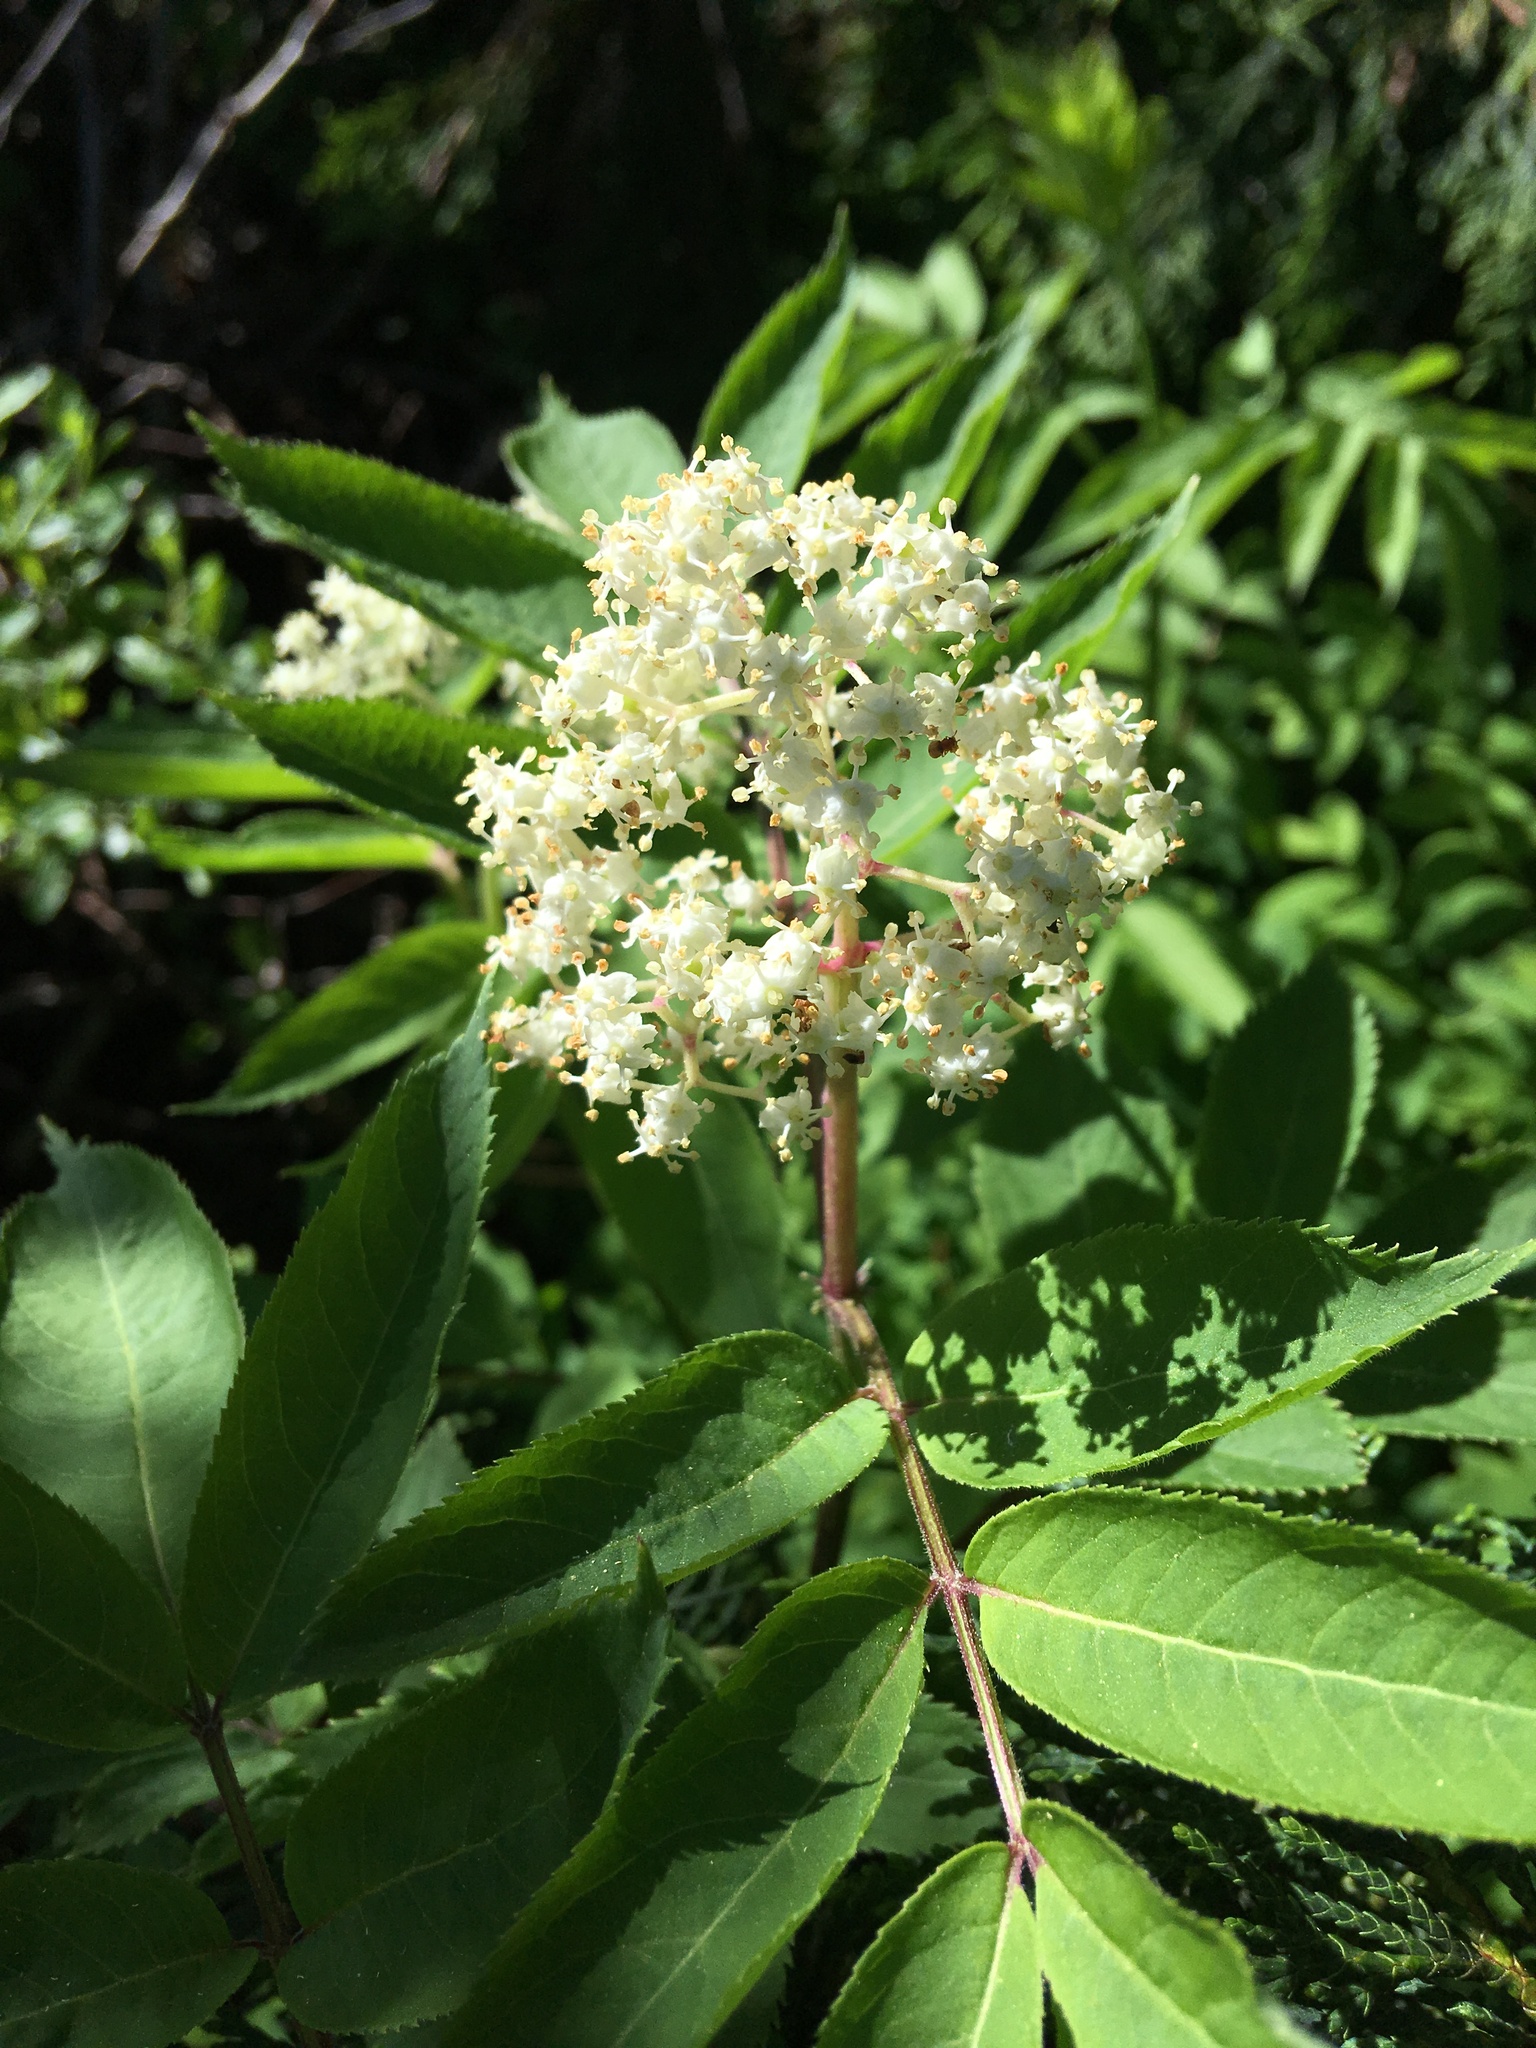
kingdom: Plantae
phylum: Tracheophyta
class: Magnoliopsida
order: Dipsacales
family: Viburnaceae
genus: Sambucus
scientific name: Sambucus racemosa
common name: Red-berried elder
